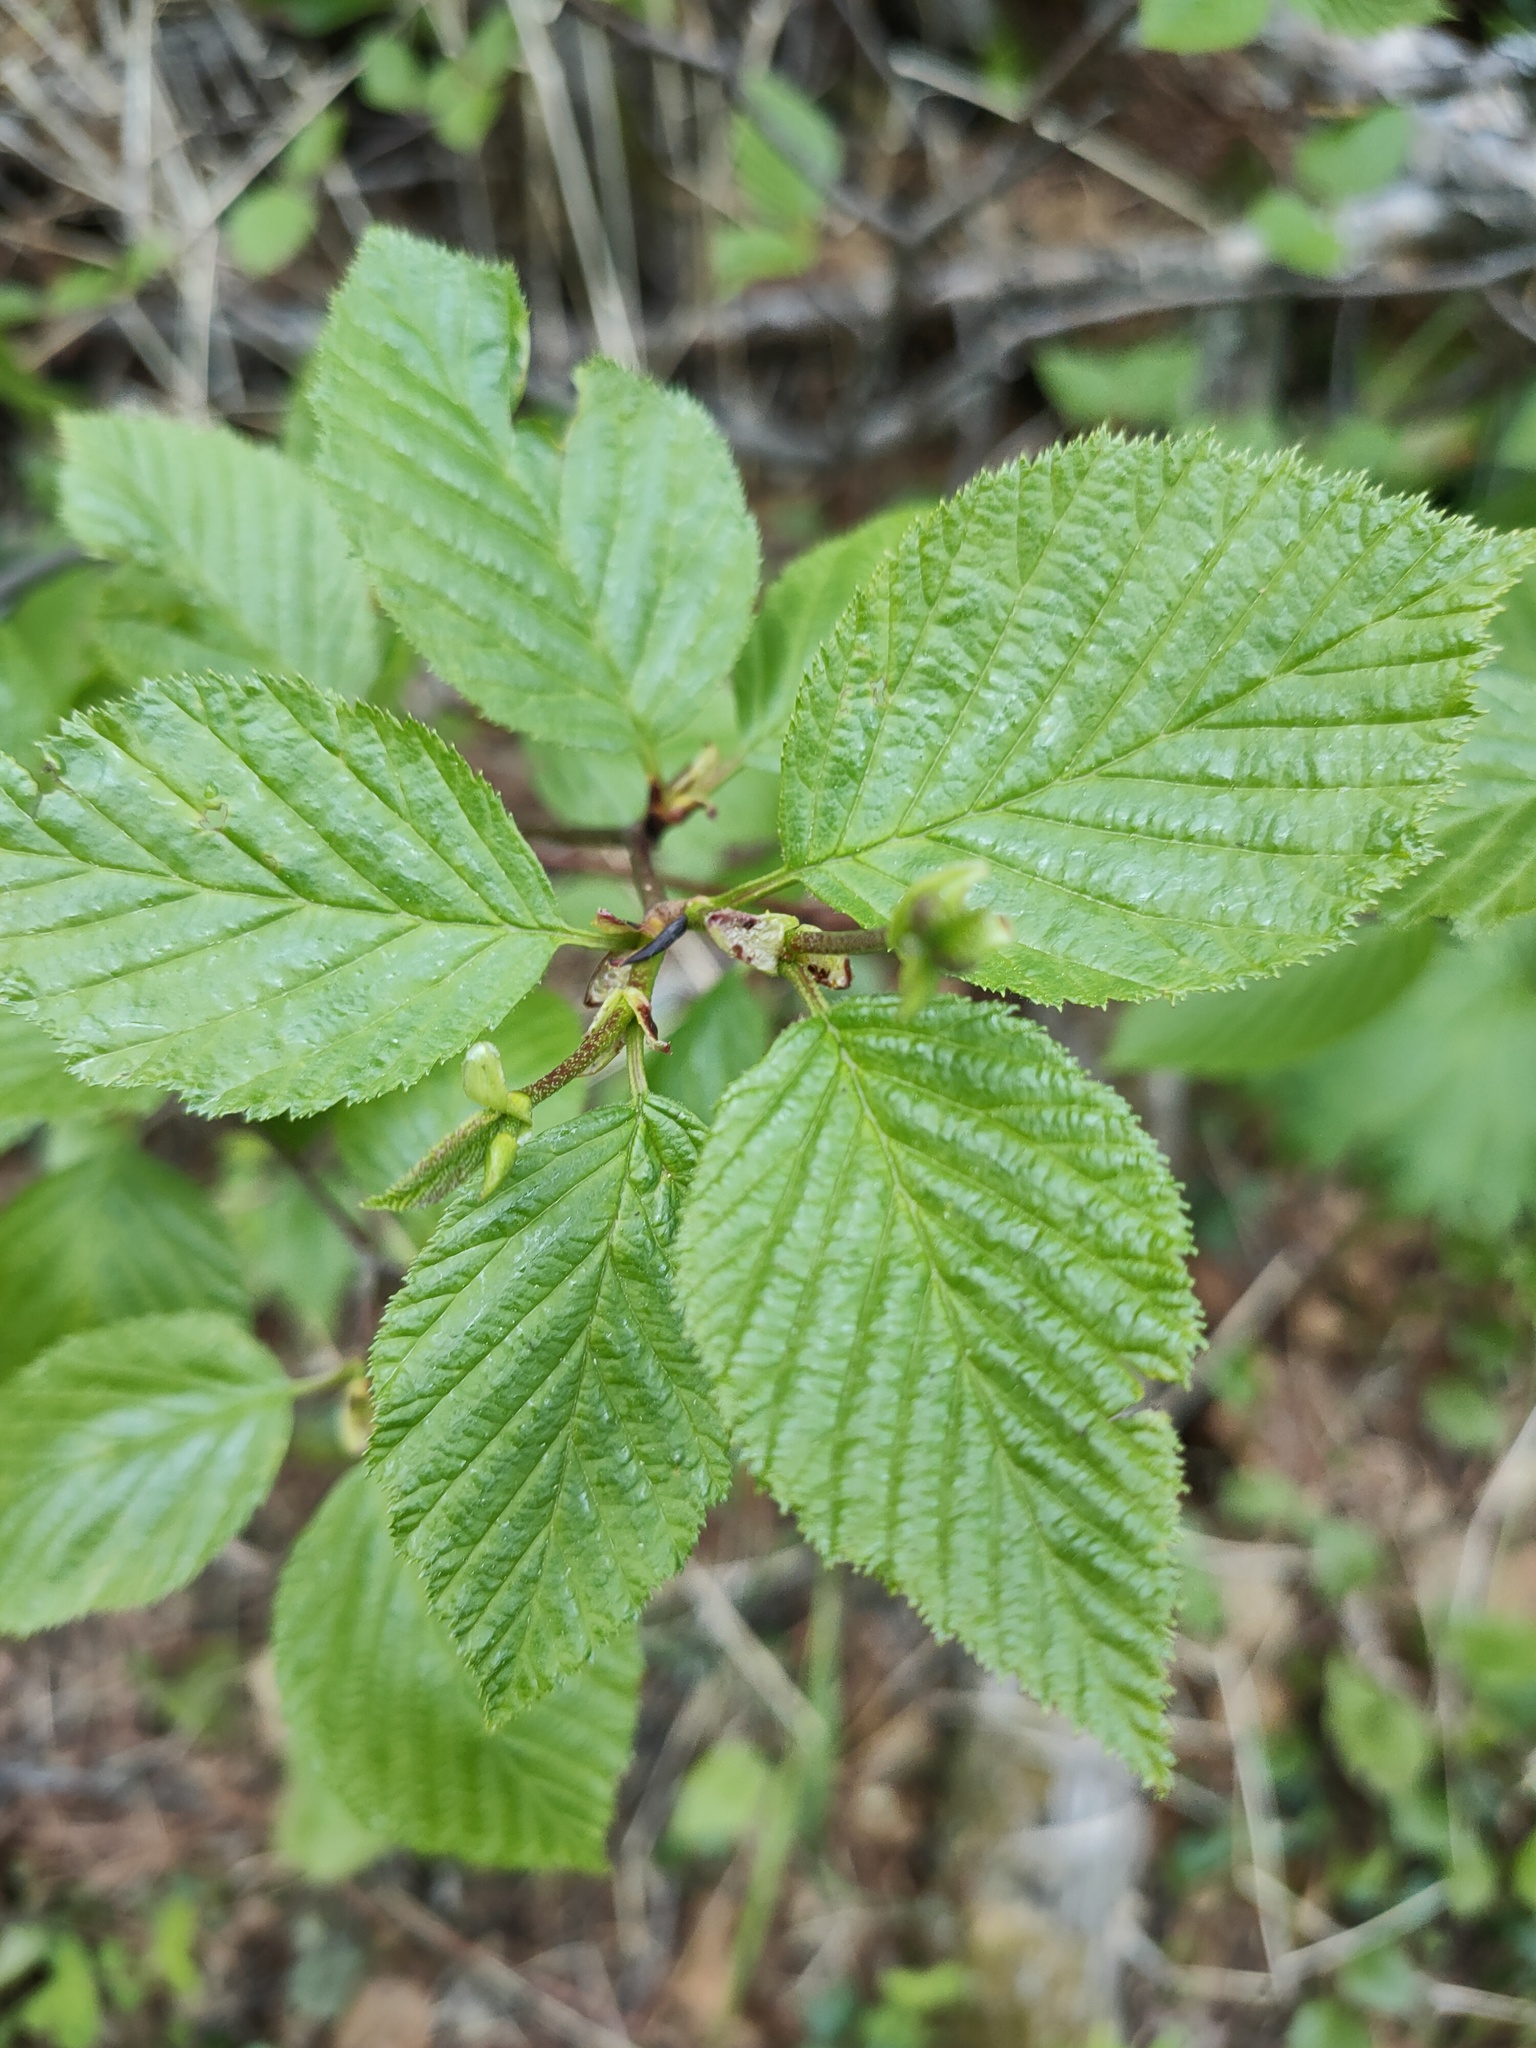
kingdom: Plantae
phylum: Tracheophyta
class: Magnoliopsida
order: Fagales
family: Betulaceae
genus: Alnus
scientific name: Alnus alnobetula
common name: Green alder
